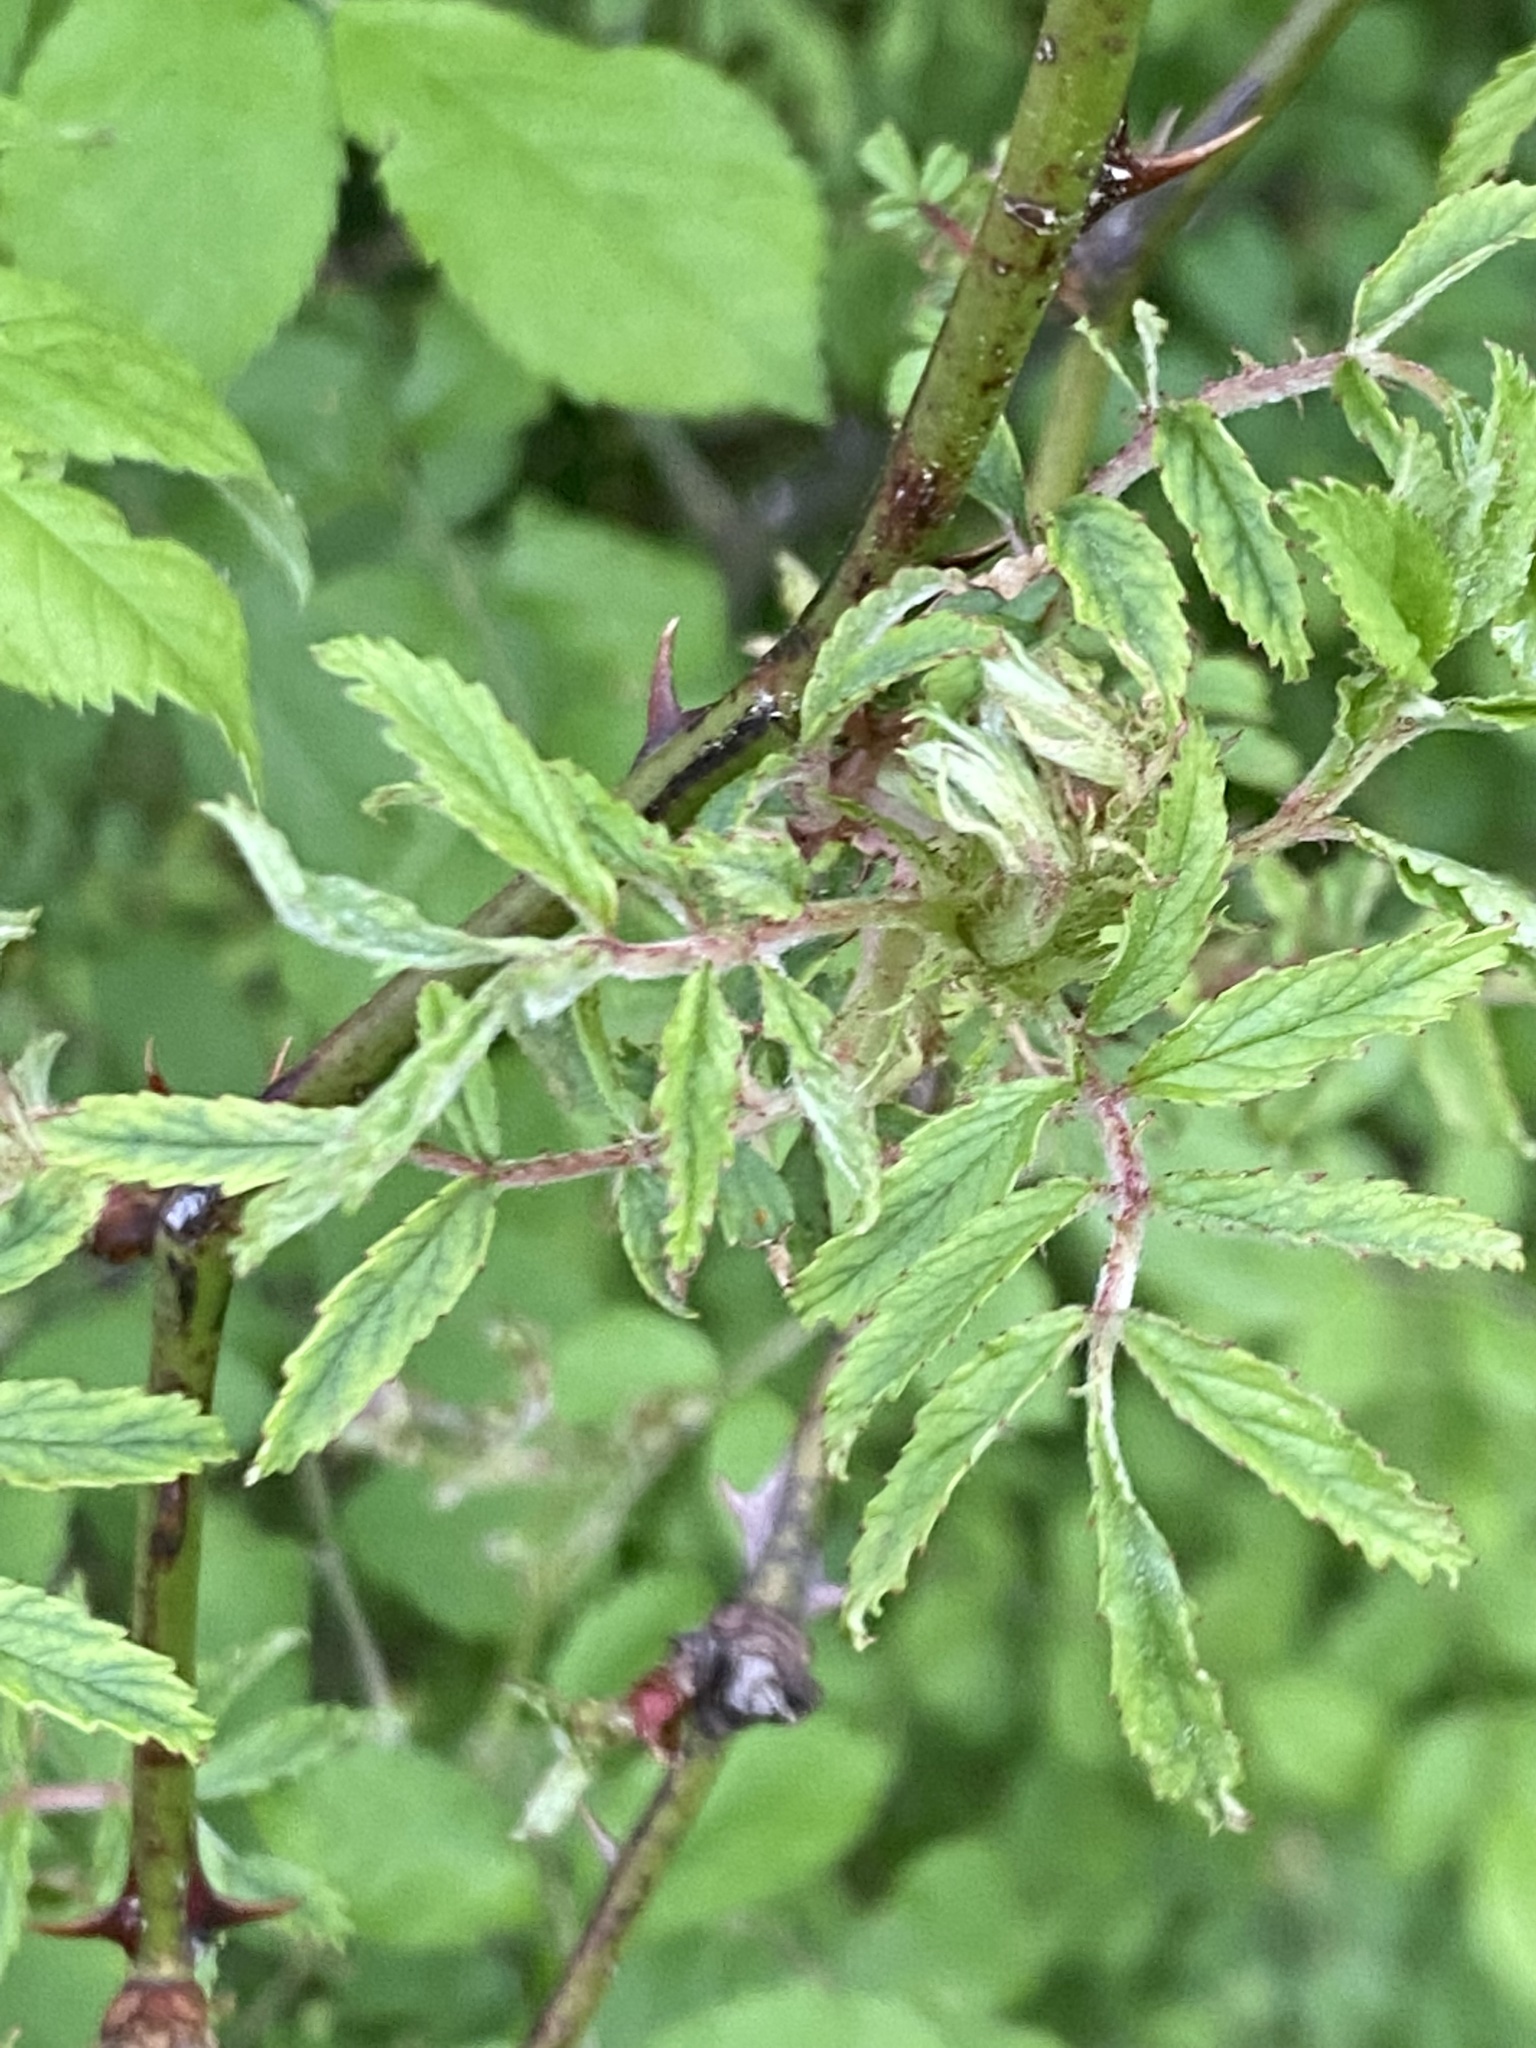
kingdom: Viruses
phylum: Negarnaviricota
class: Ellioviricetes
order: Bunyavirales
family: Fimoviridae
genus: Emaravirus
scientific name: Emaravirus rosae
